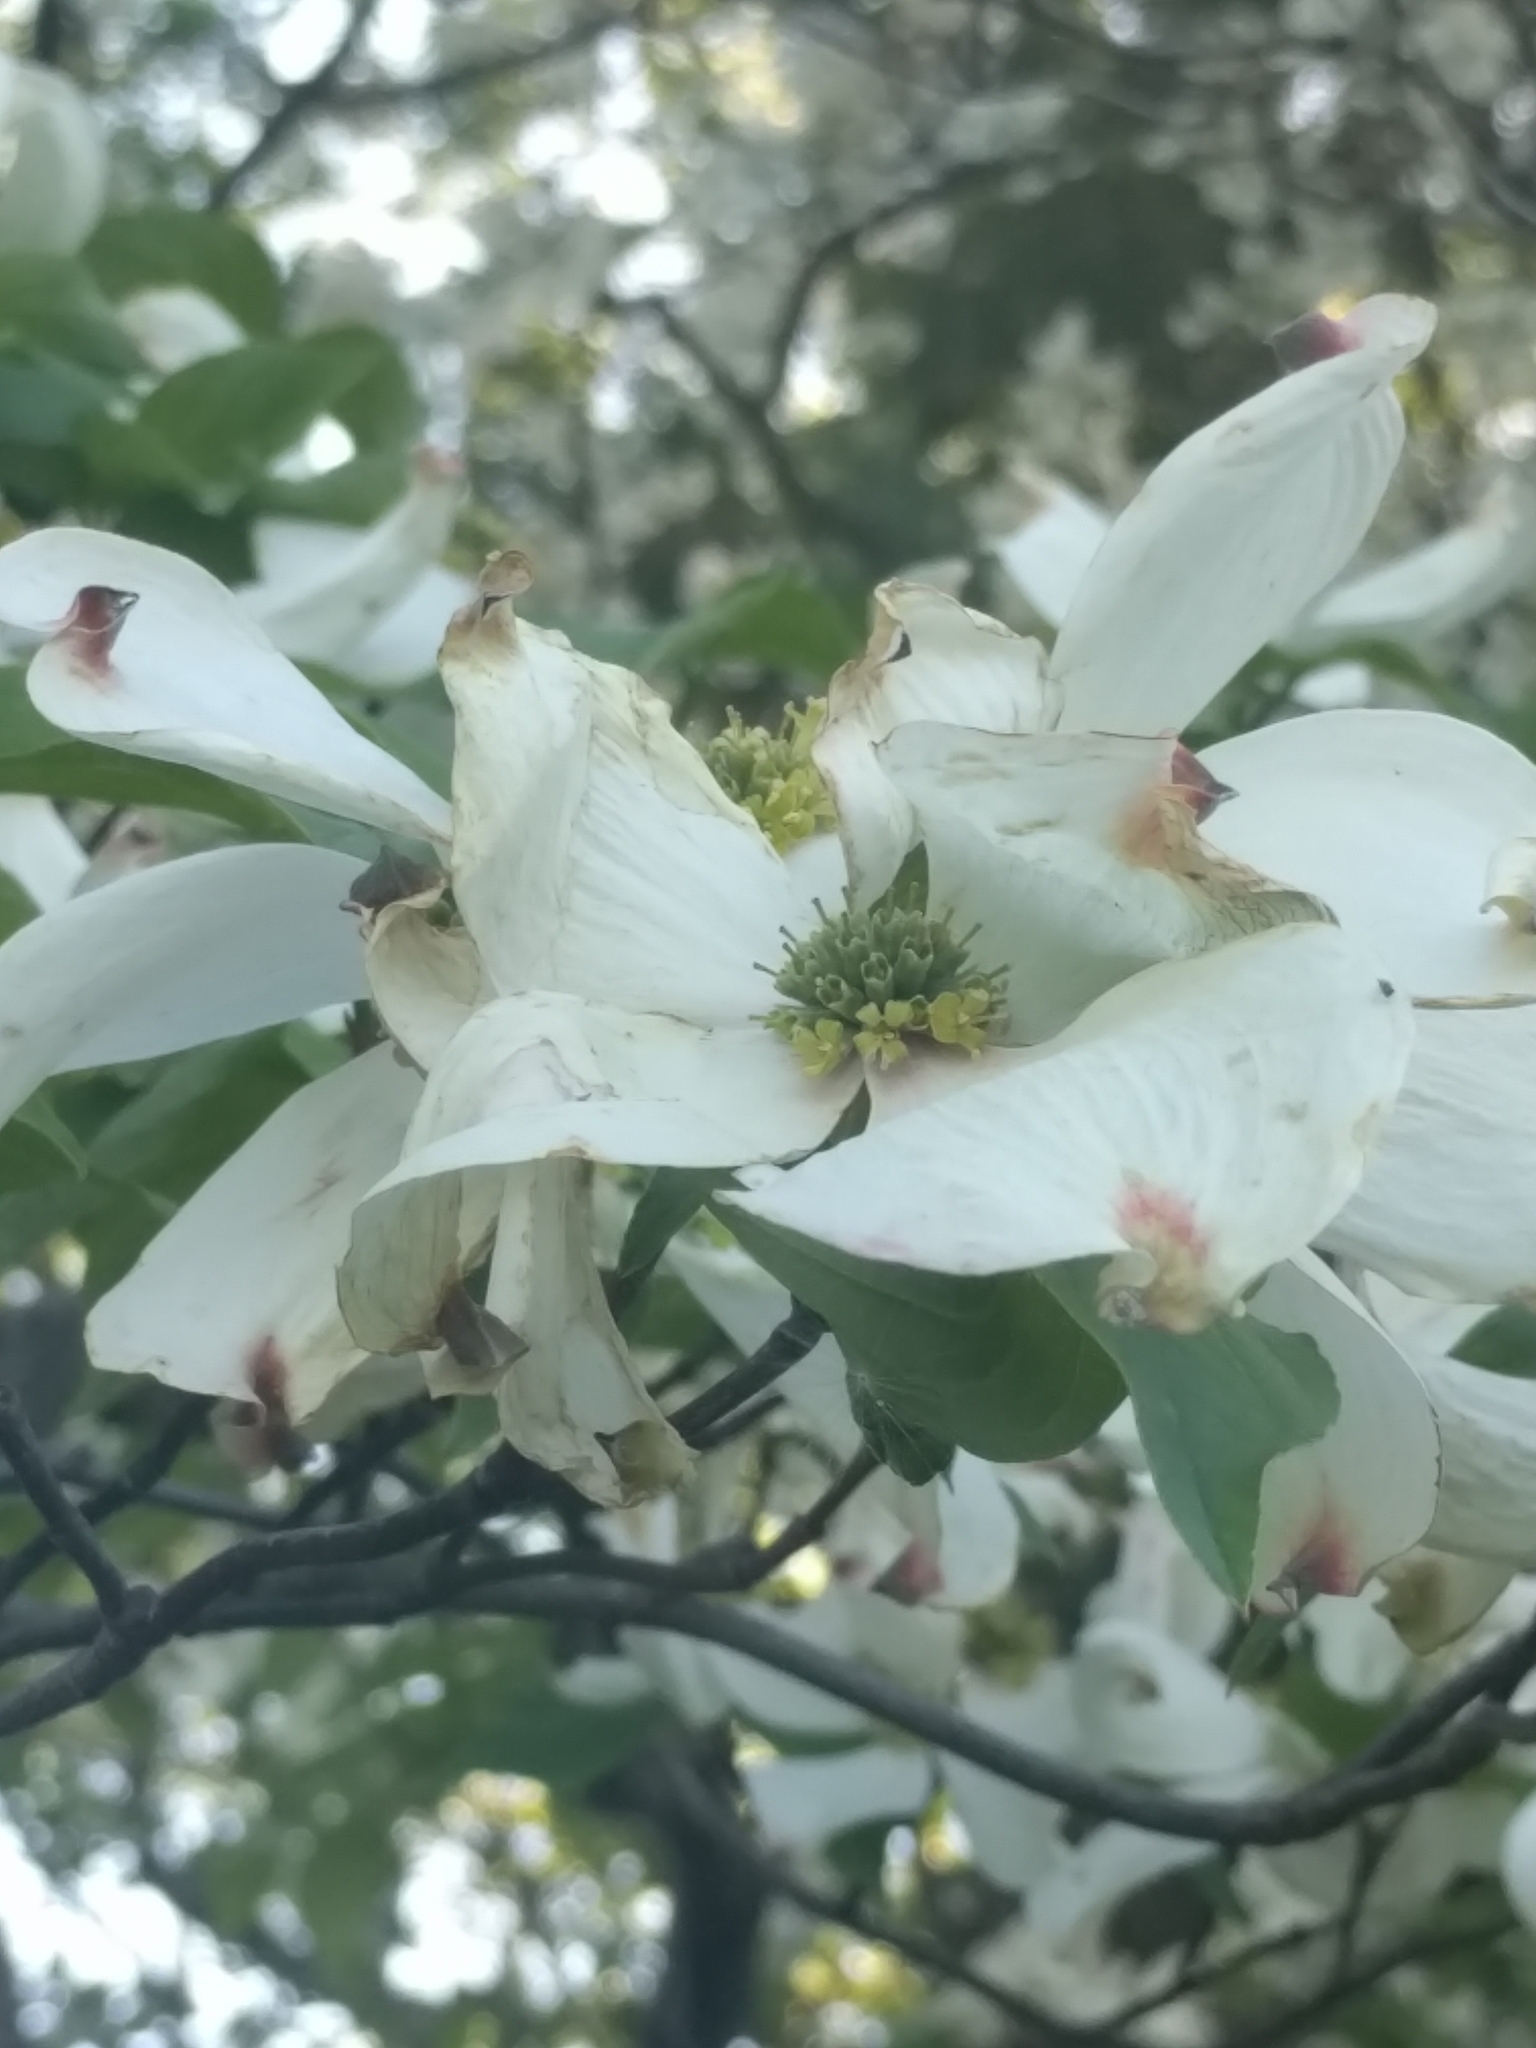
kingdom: Plantae
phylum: Tracheophyta
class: Magnoliopsida
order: Cornales
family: Cornaceae
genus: Cornus
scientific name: Cornus florida
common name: Flowering dogwood
